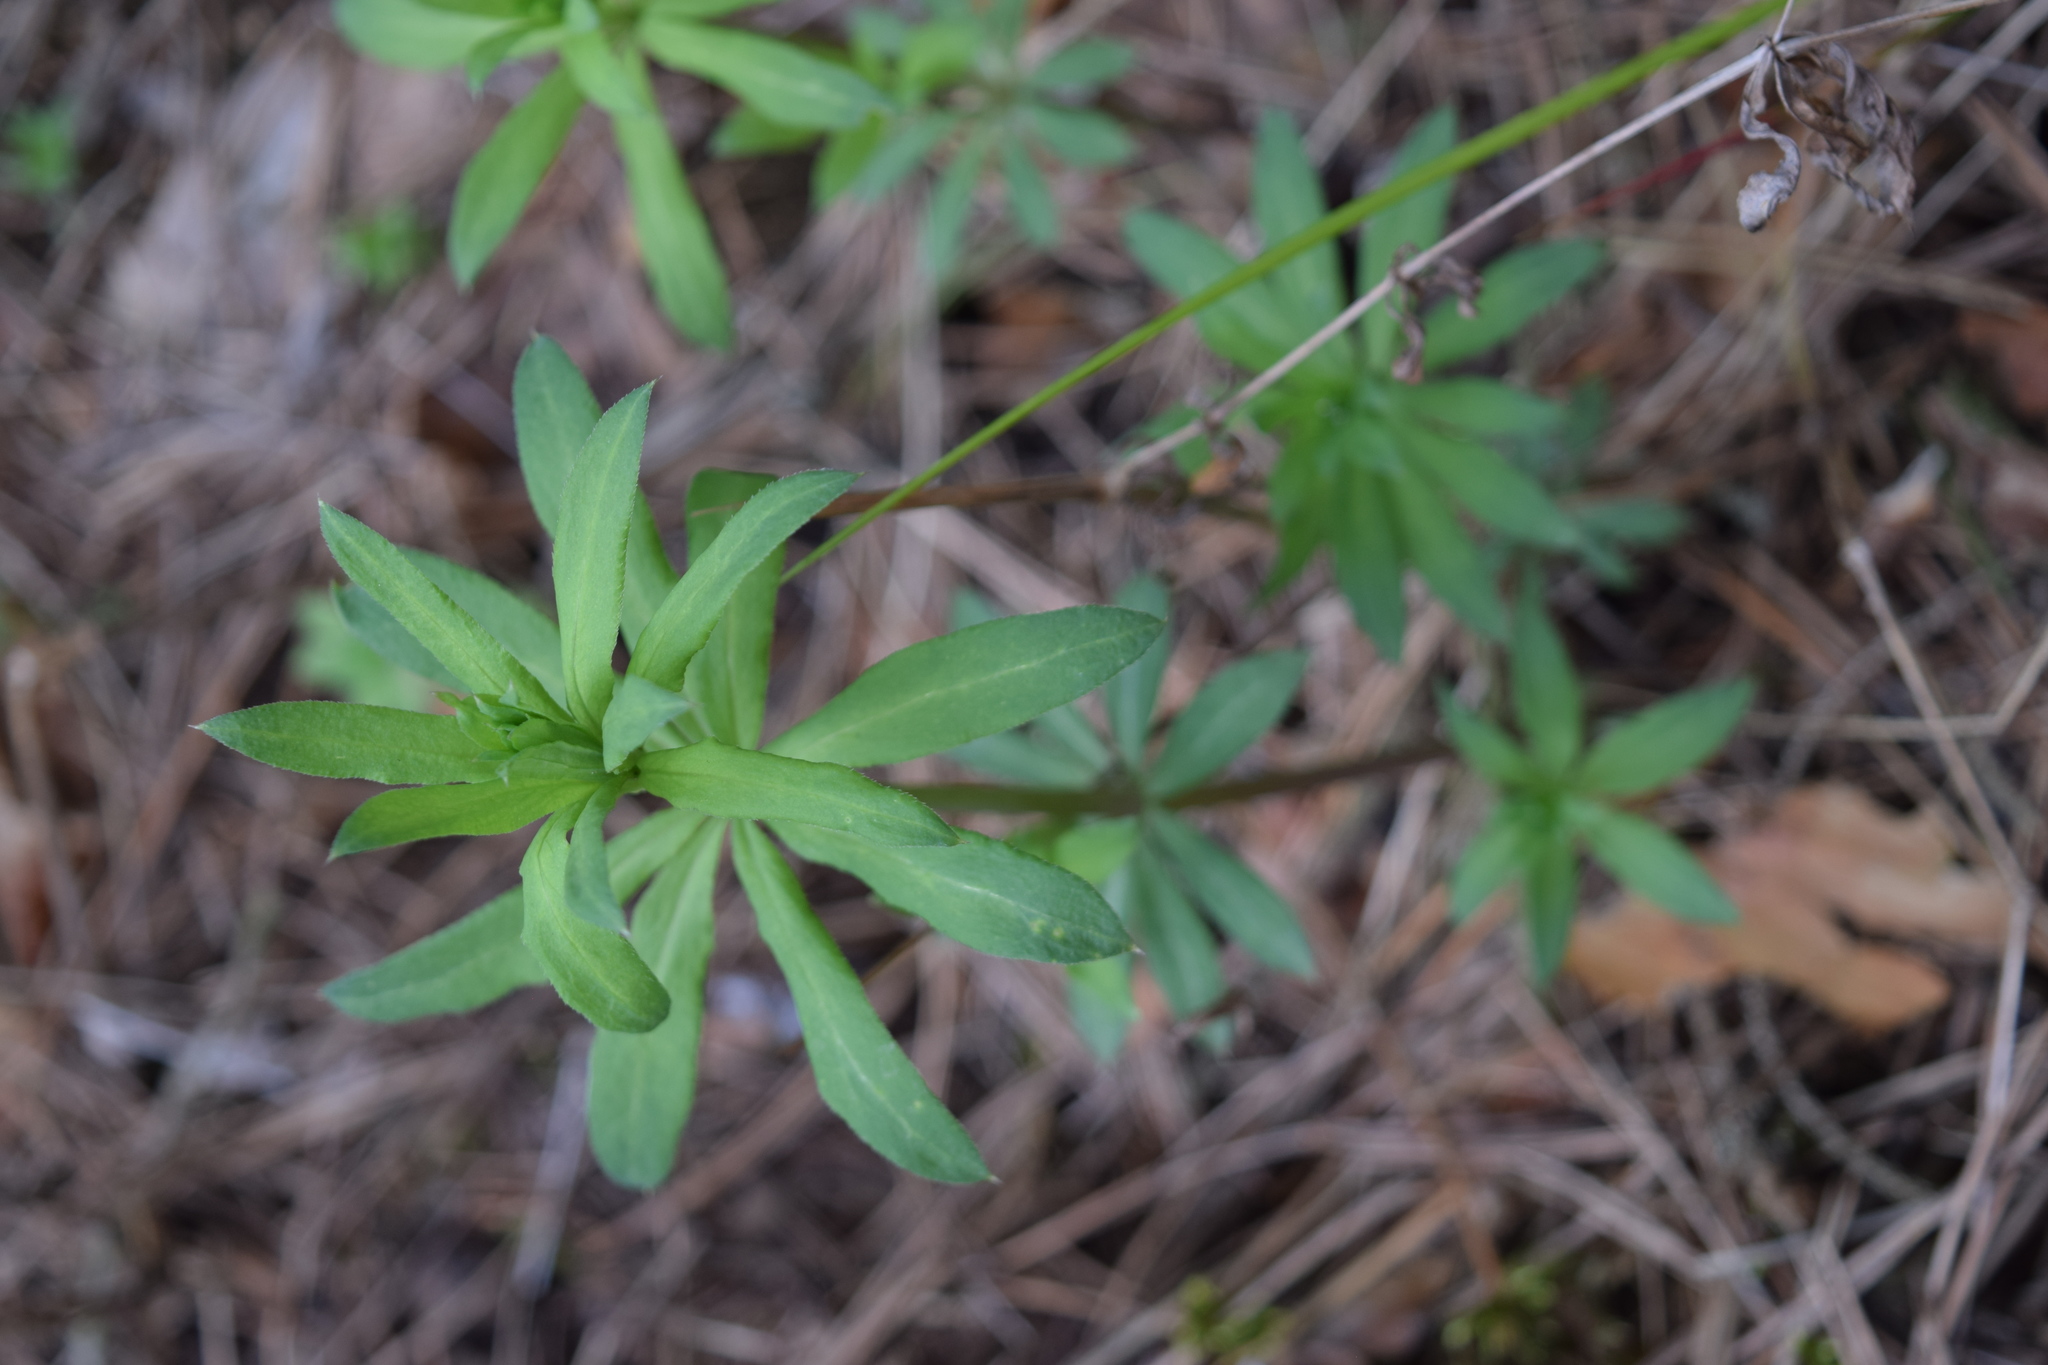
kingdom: Plantae
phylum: Tracheophyta
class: Magnoliopsida
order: Gentianales
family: Rubiaceae
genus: Galium
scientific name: Galium intermedium
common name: Bedstraw
